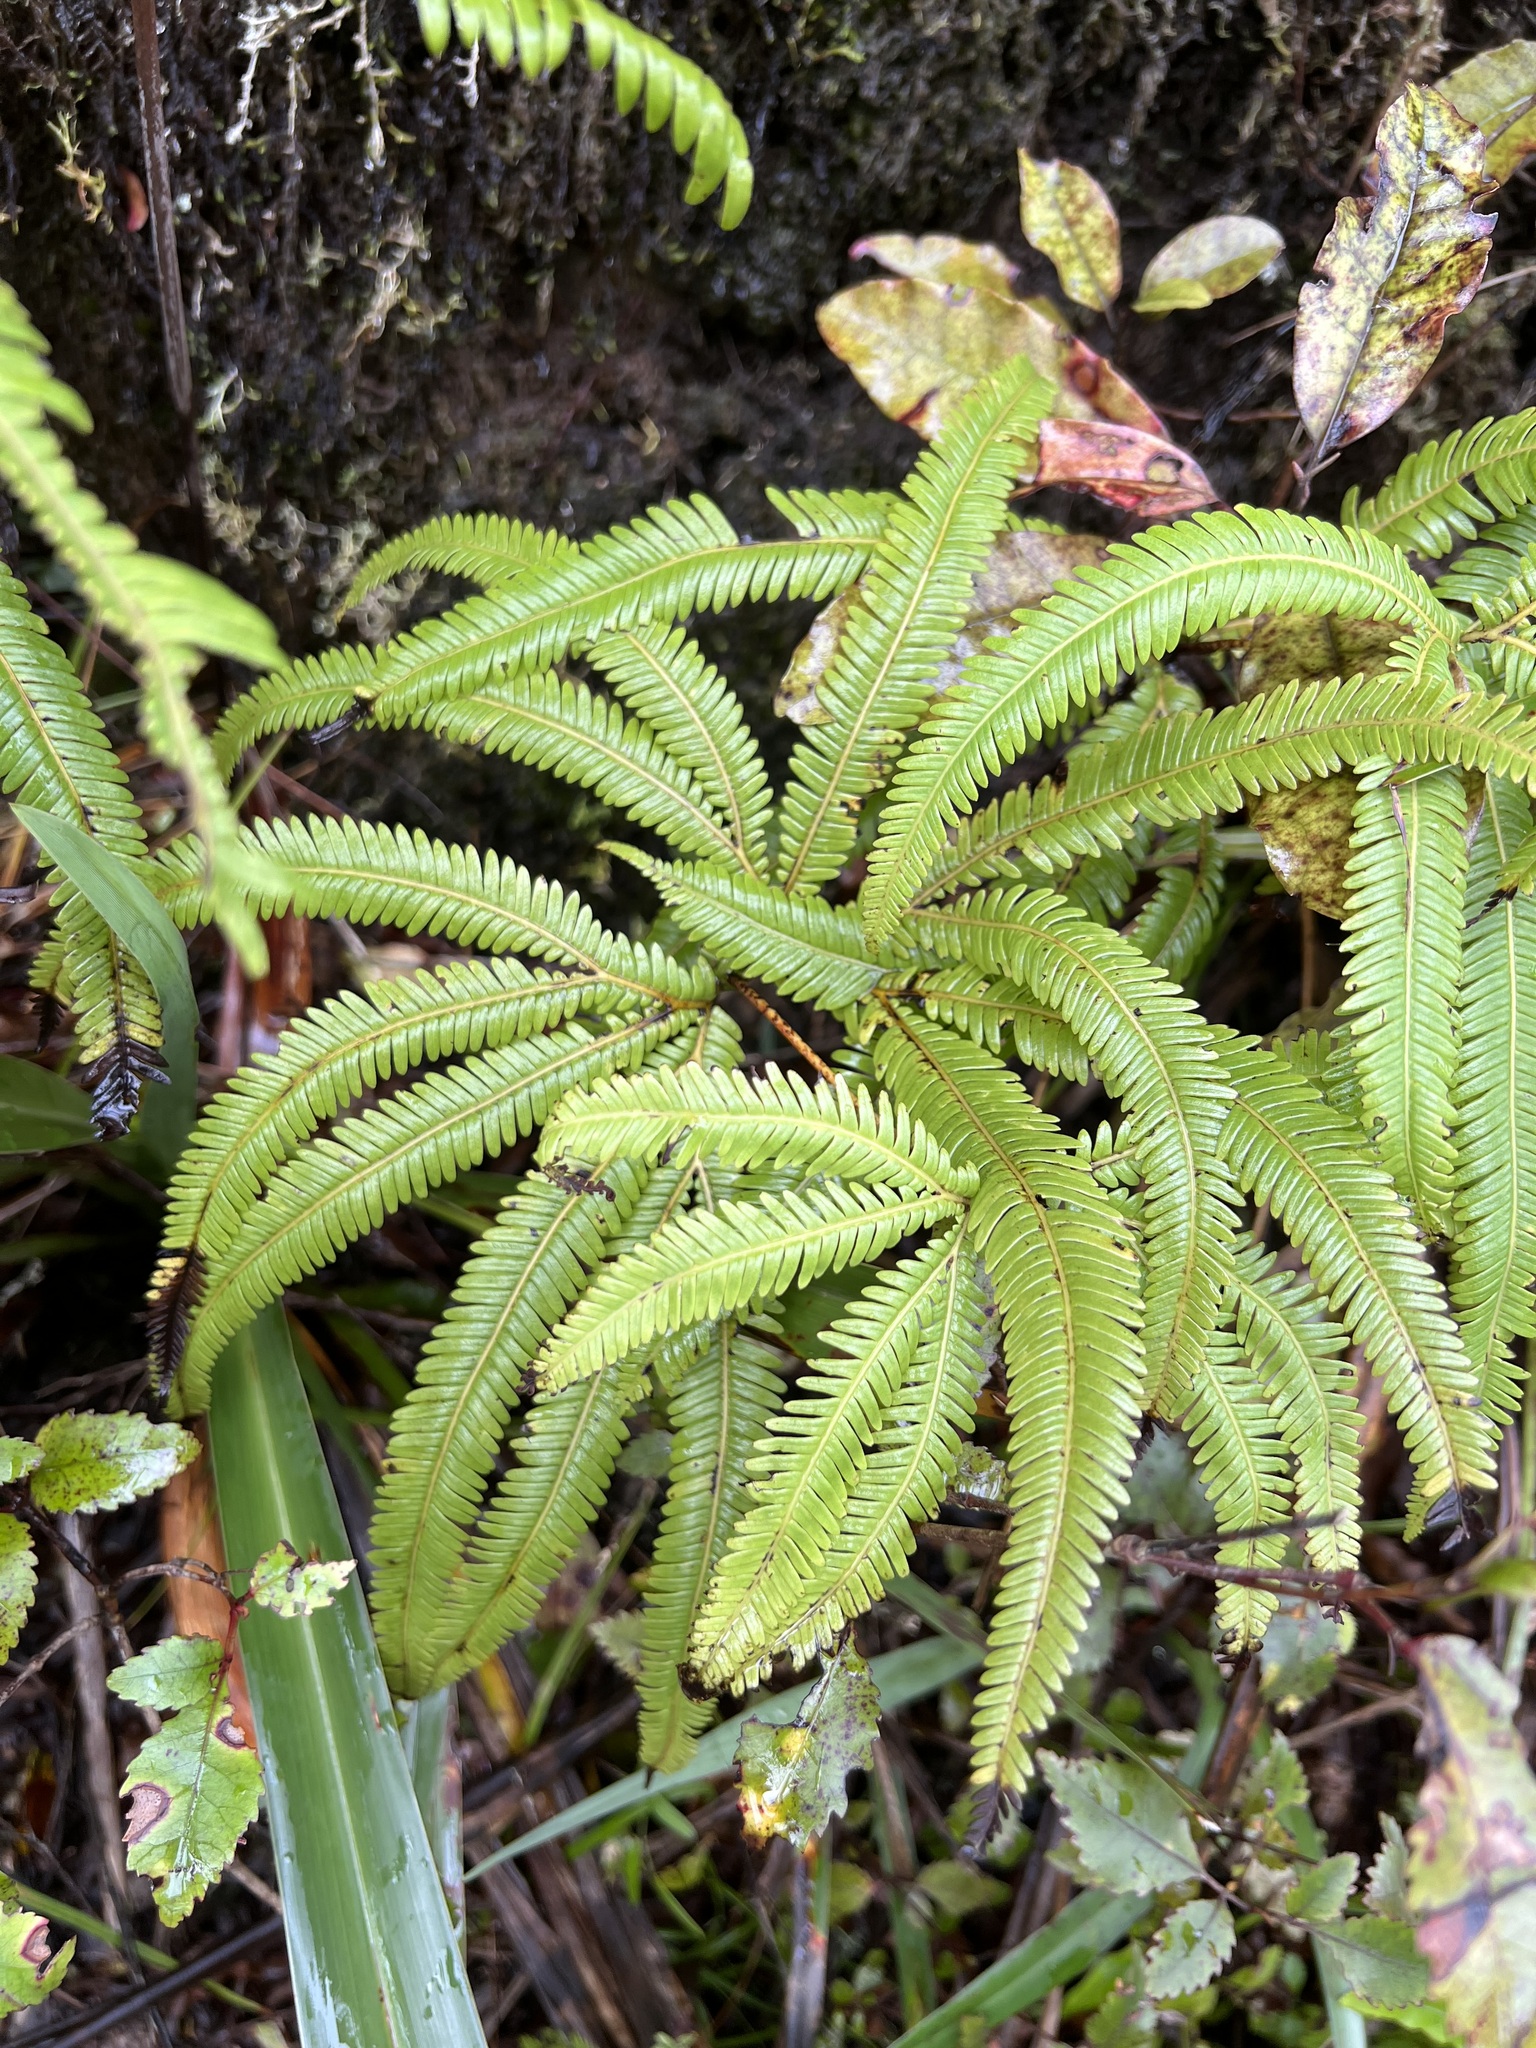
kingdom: Plantae
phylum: Tracheophyta
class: Polypodiopsida
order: Gleicheniales
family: Gleicheniaceae
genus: Sticherus
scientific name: Sticherus cunninghamii
